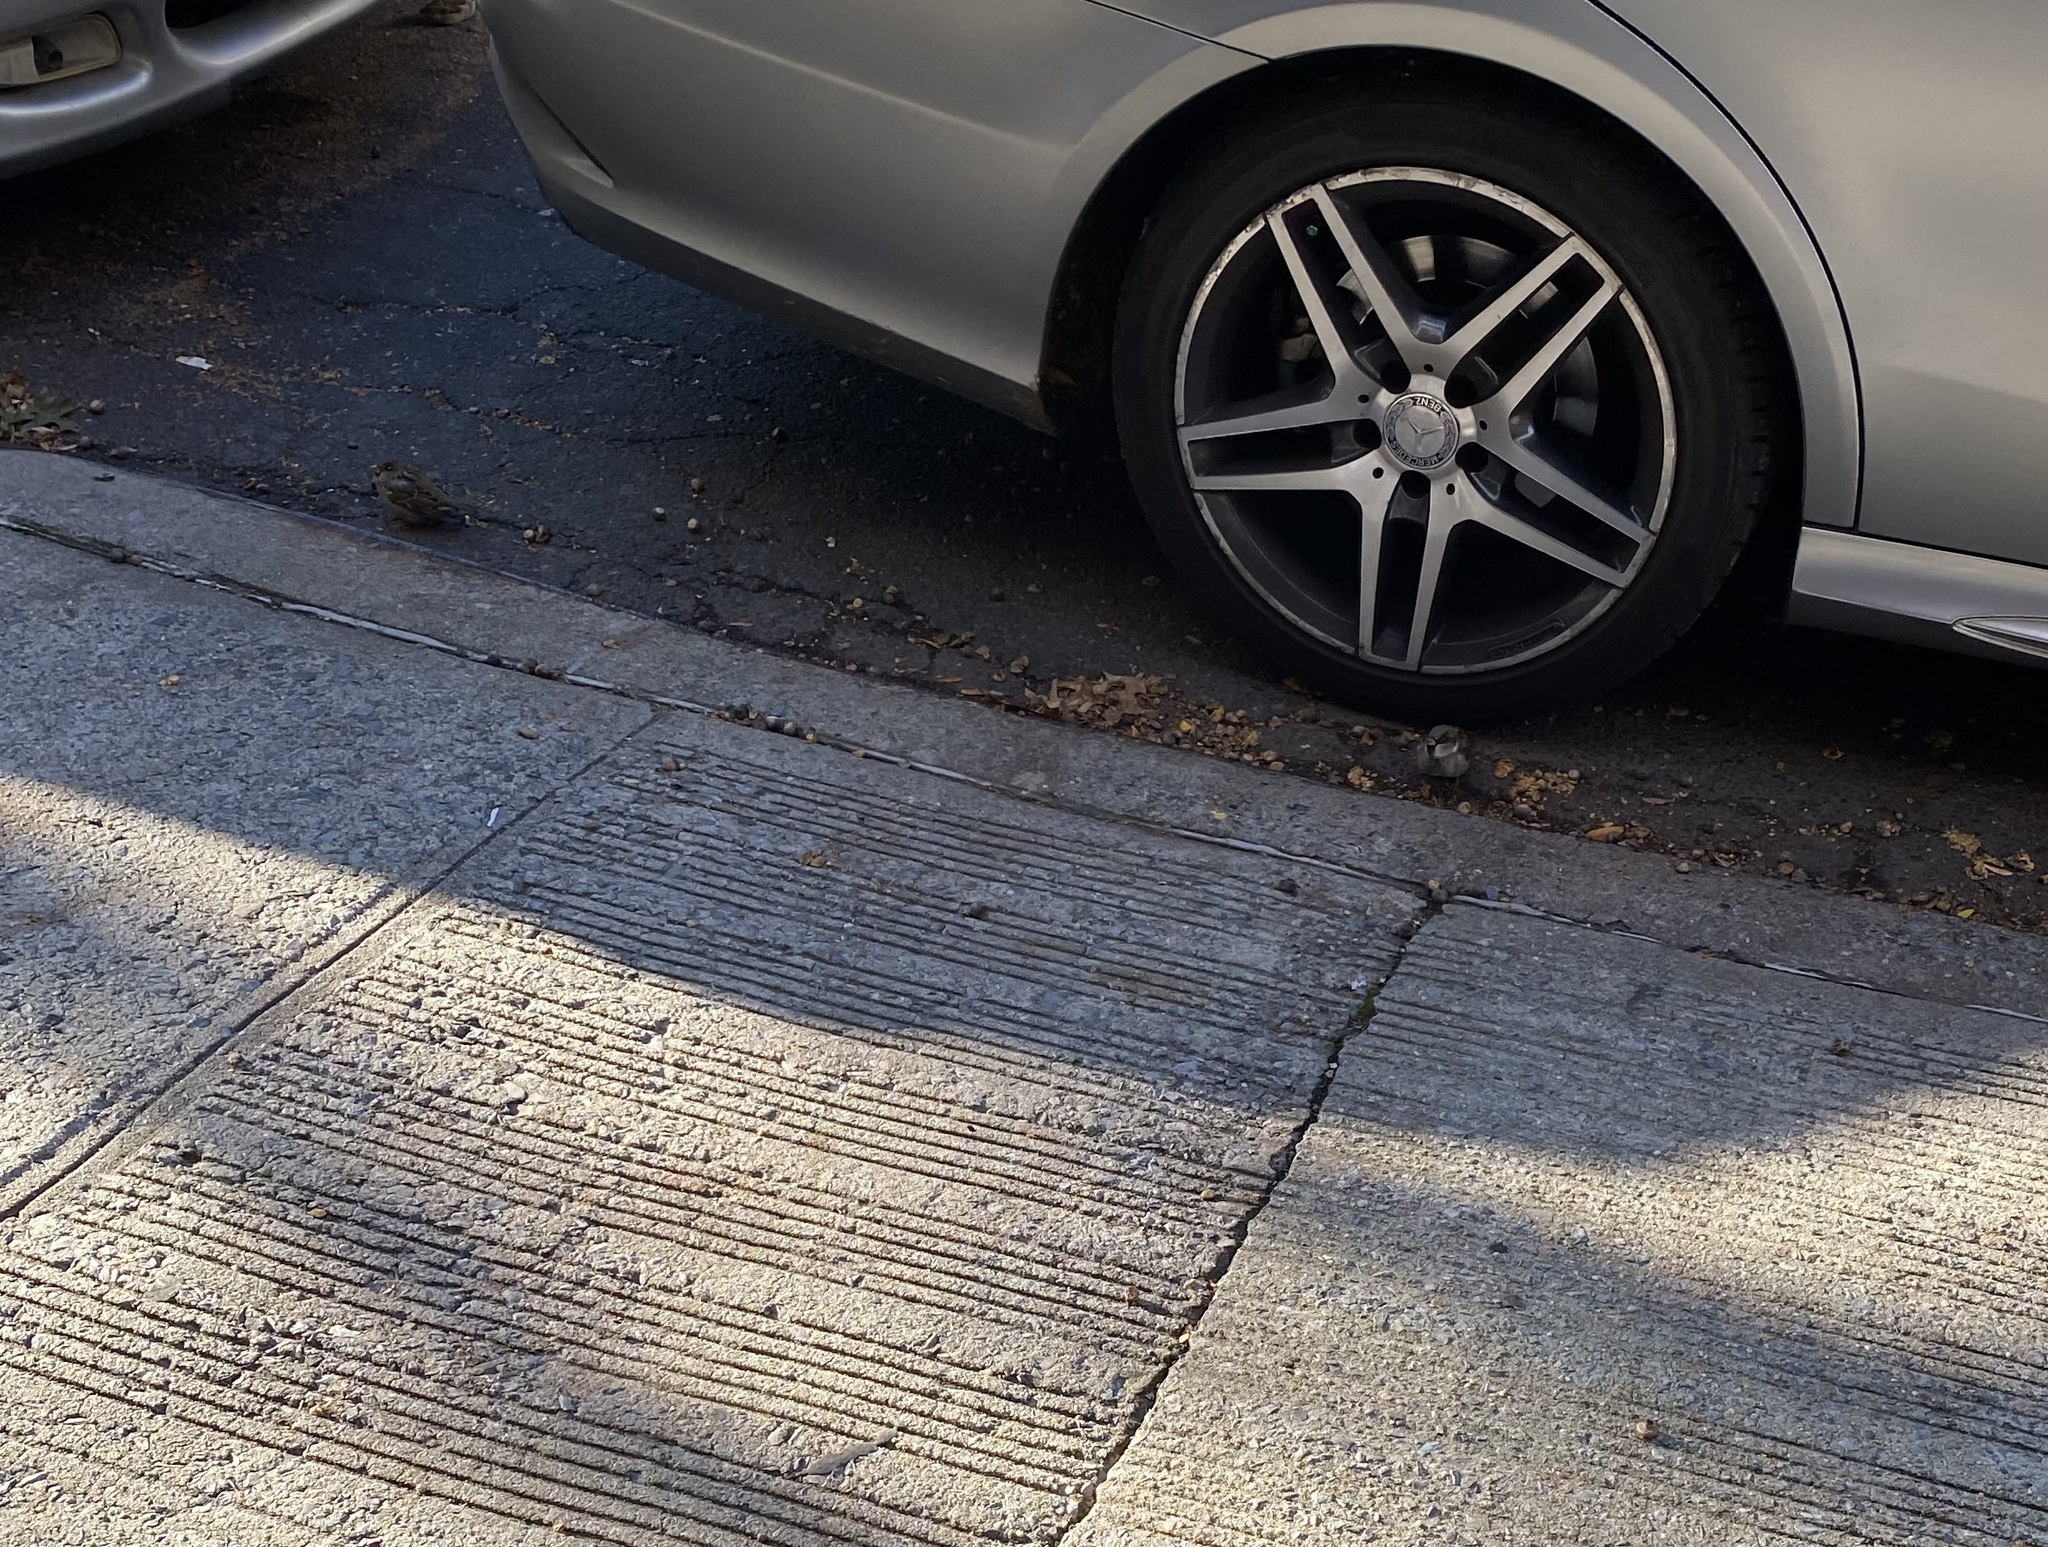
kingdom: Animalia
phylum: Chordata
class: Aves
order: Passeriformes
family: Passeridae
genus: Passer
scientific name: Passer domesticus
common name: House sparrow
